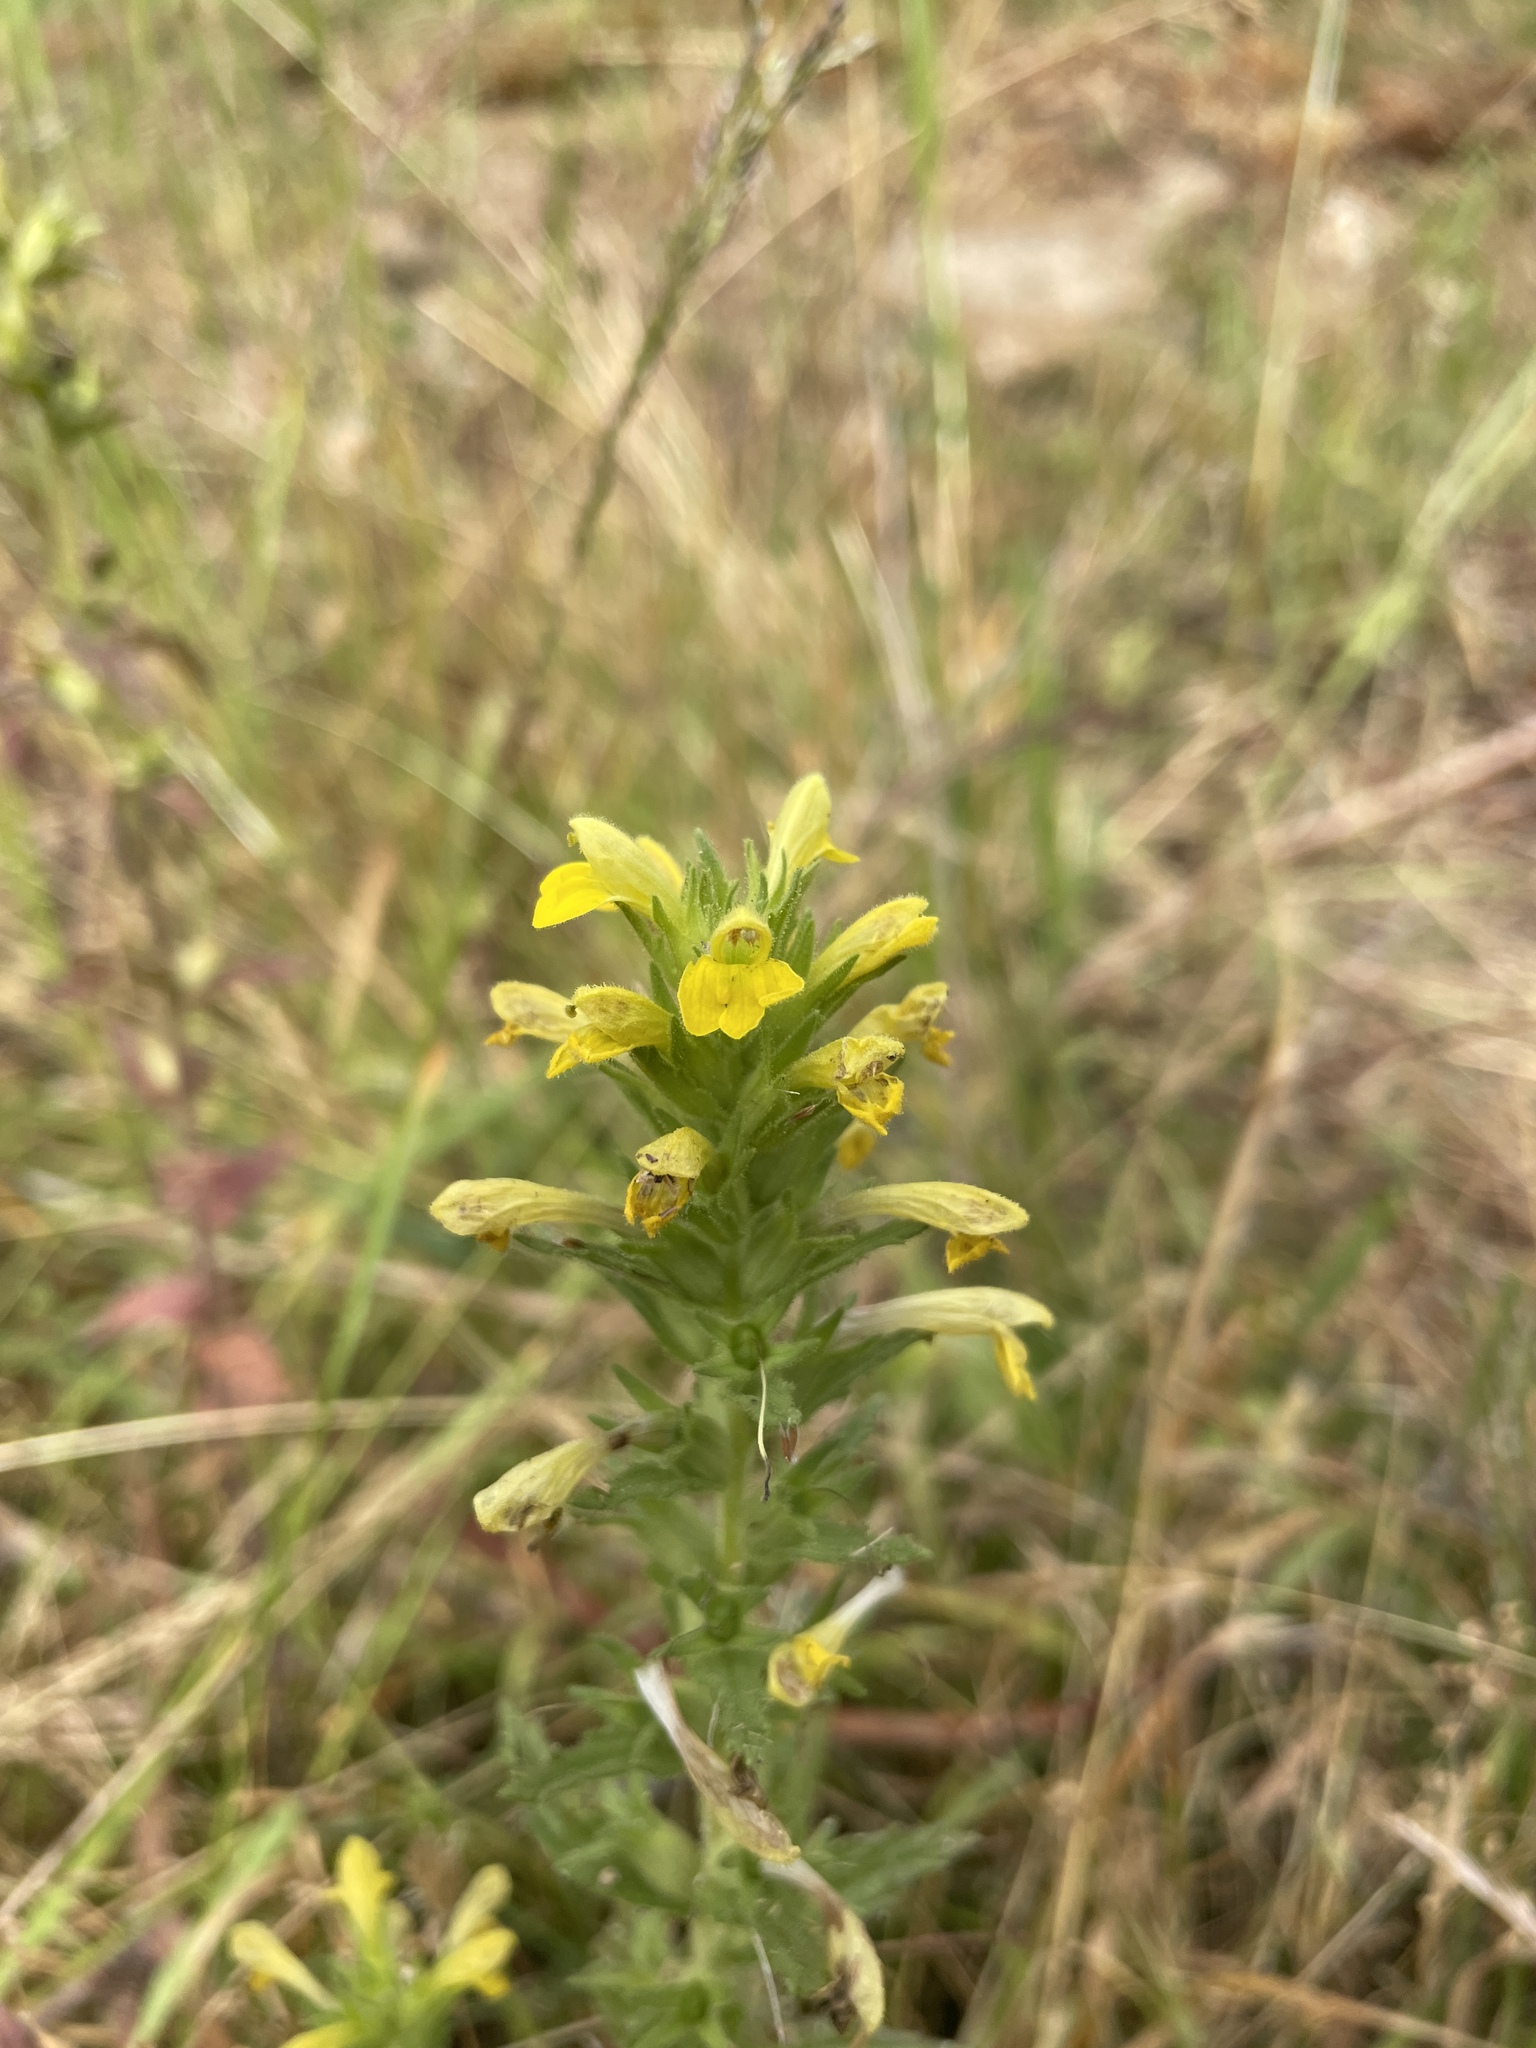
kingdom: Plantae
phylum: Tracheophyta
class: Magnoliopsida
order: Lamiales
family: Orobanchaceae
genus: Bellardia
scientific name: Bellardia viscosa
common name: Sticky parentucellia
